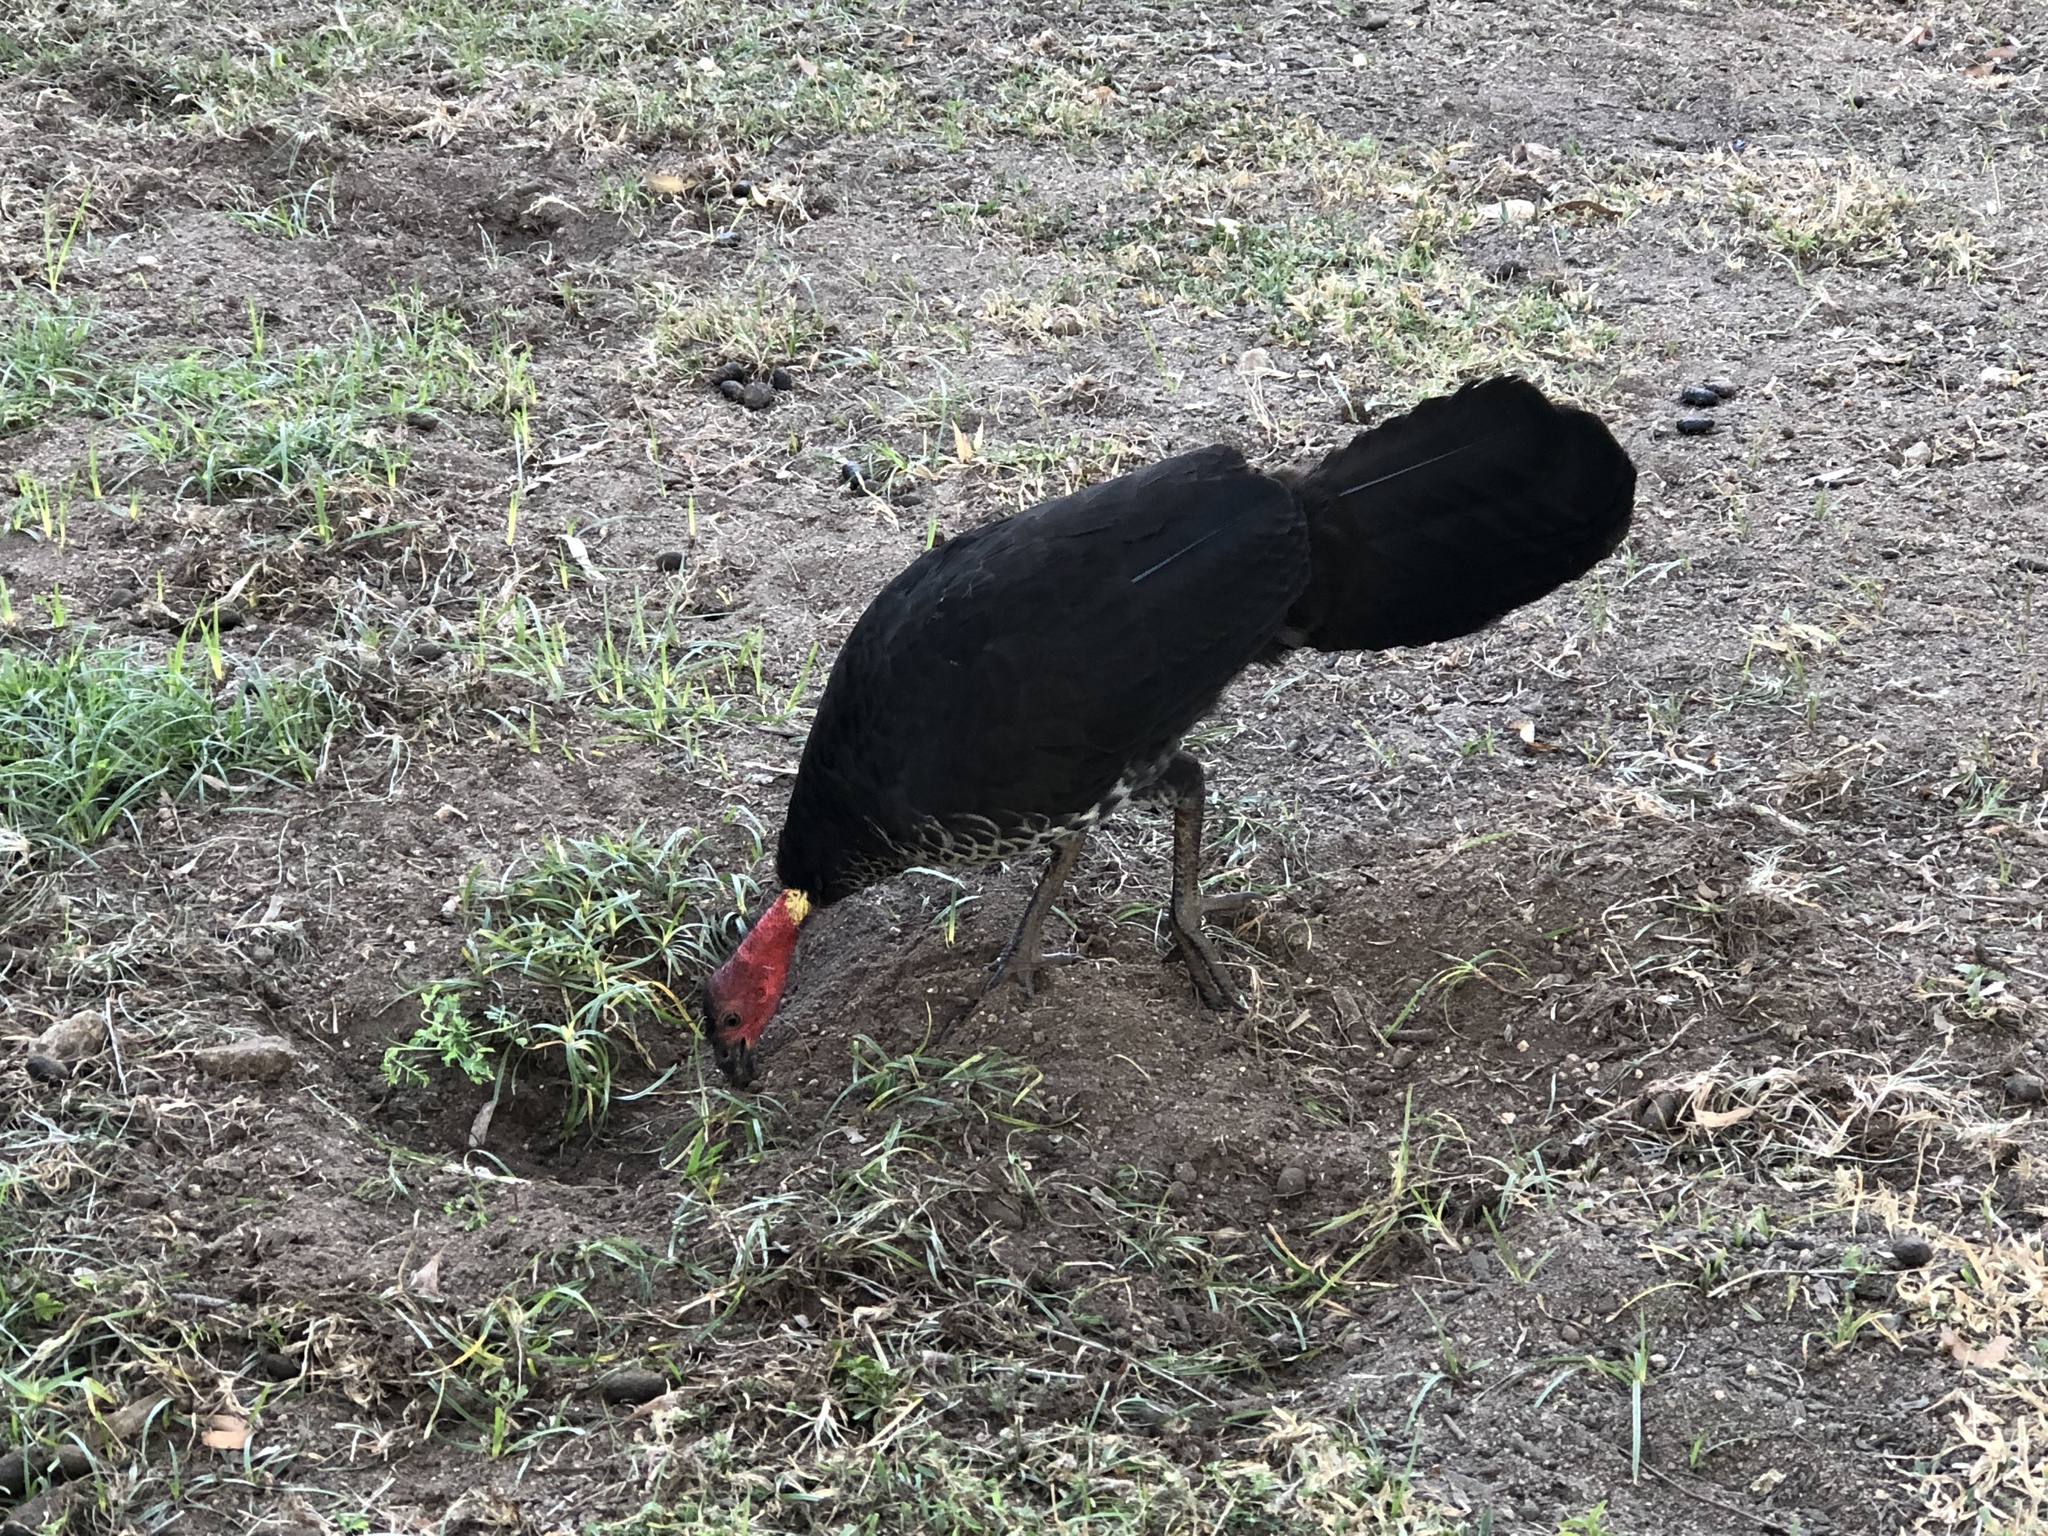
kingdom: Animalia
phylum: Chordata
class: Aves
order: Galliformes
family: Megapodiidae
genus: Alectura
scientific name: Alectura lathami
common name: Australian brushturkey
